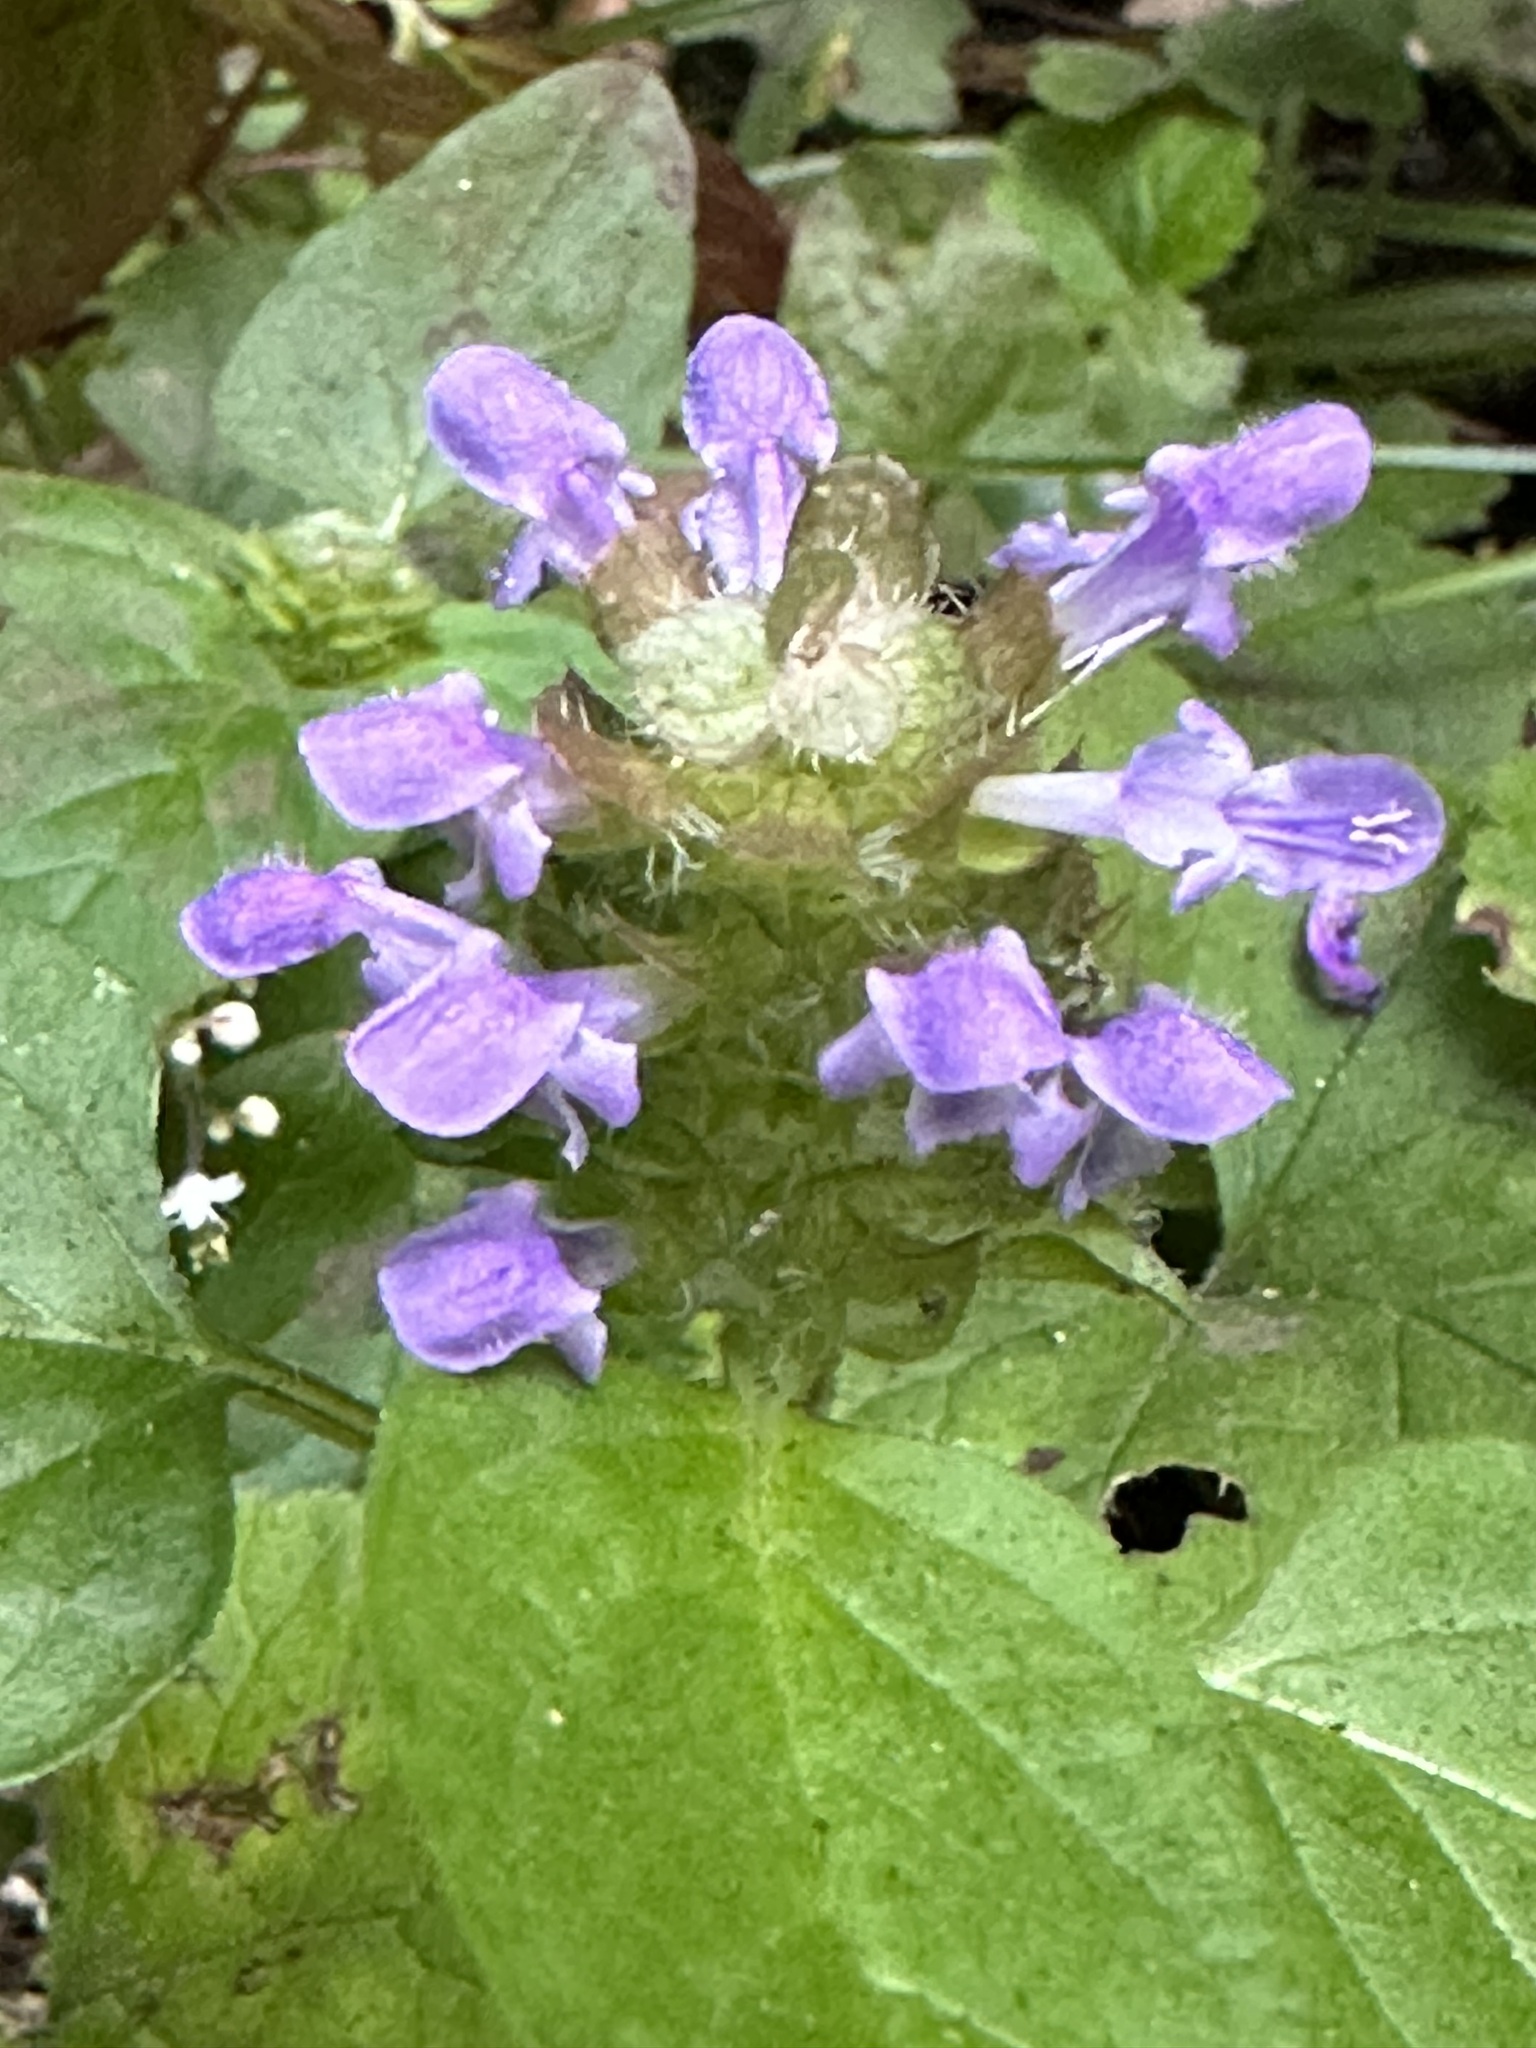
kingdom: Plantae
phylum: Tracheophyta
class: Magnoliopsida
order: Lamiales
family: Lamiaceae
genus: Prunella
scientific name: Prunella vulgaris
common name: Heal-all
